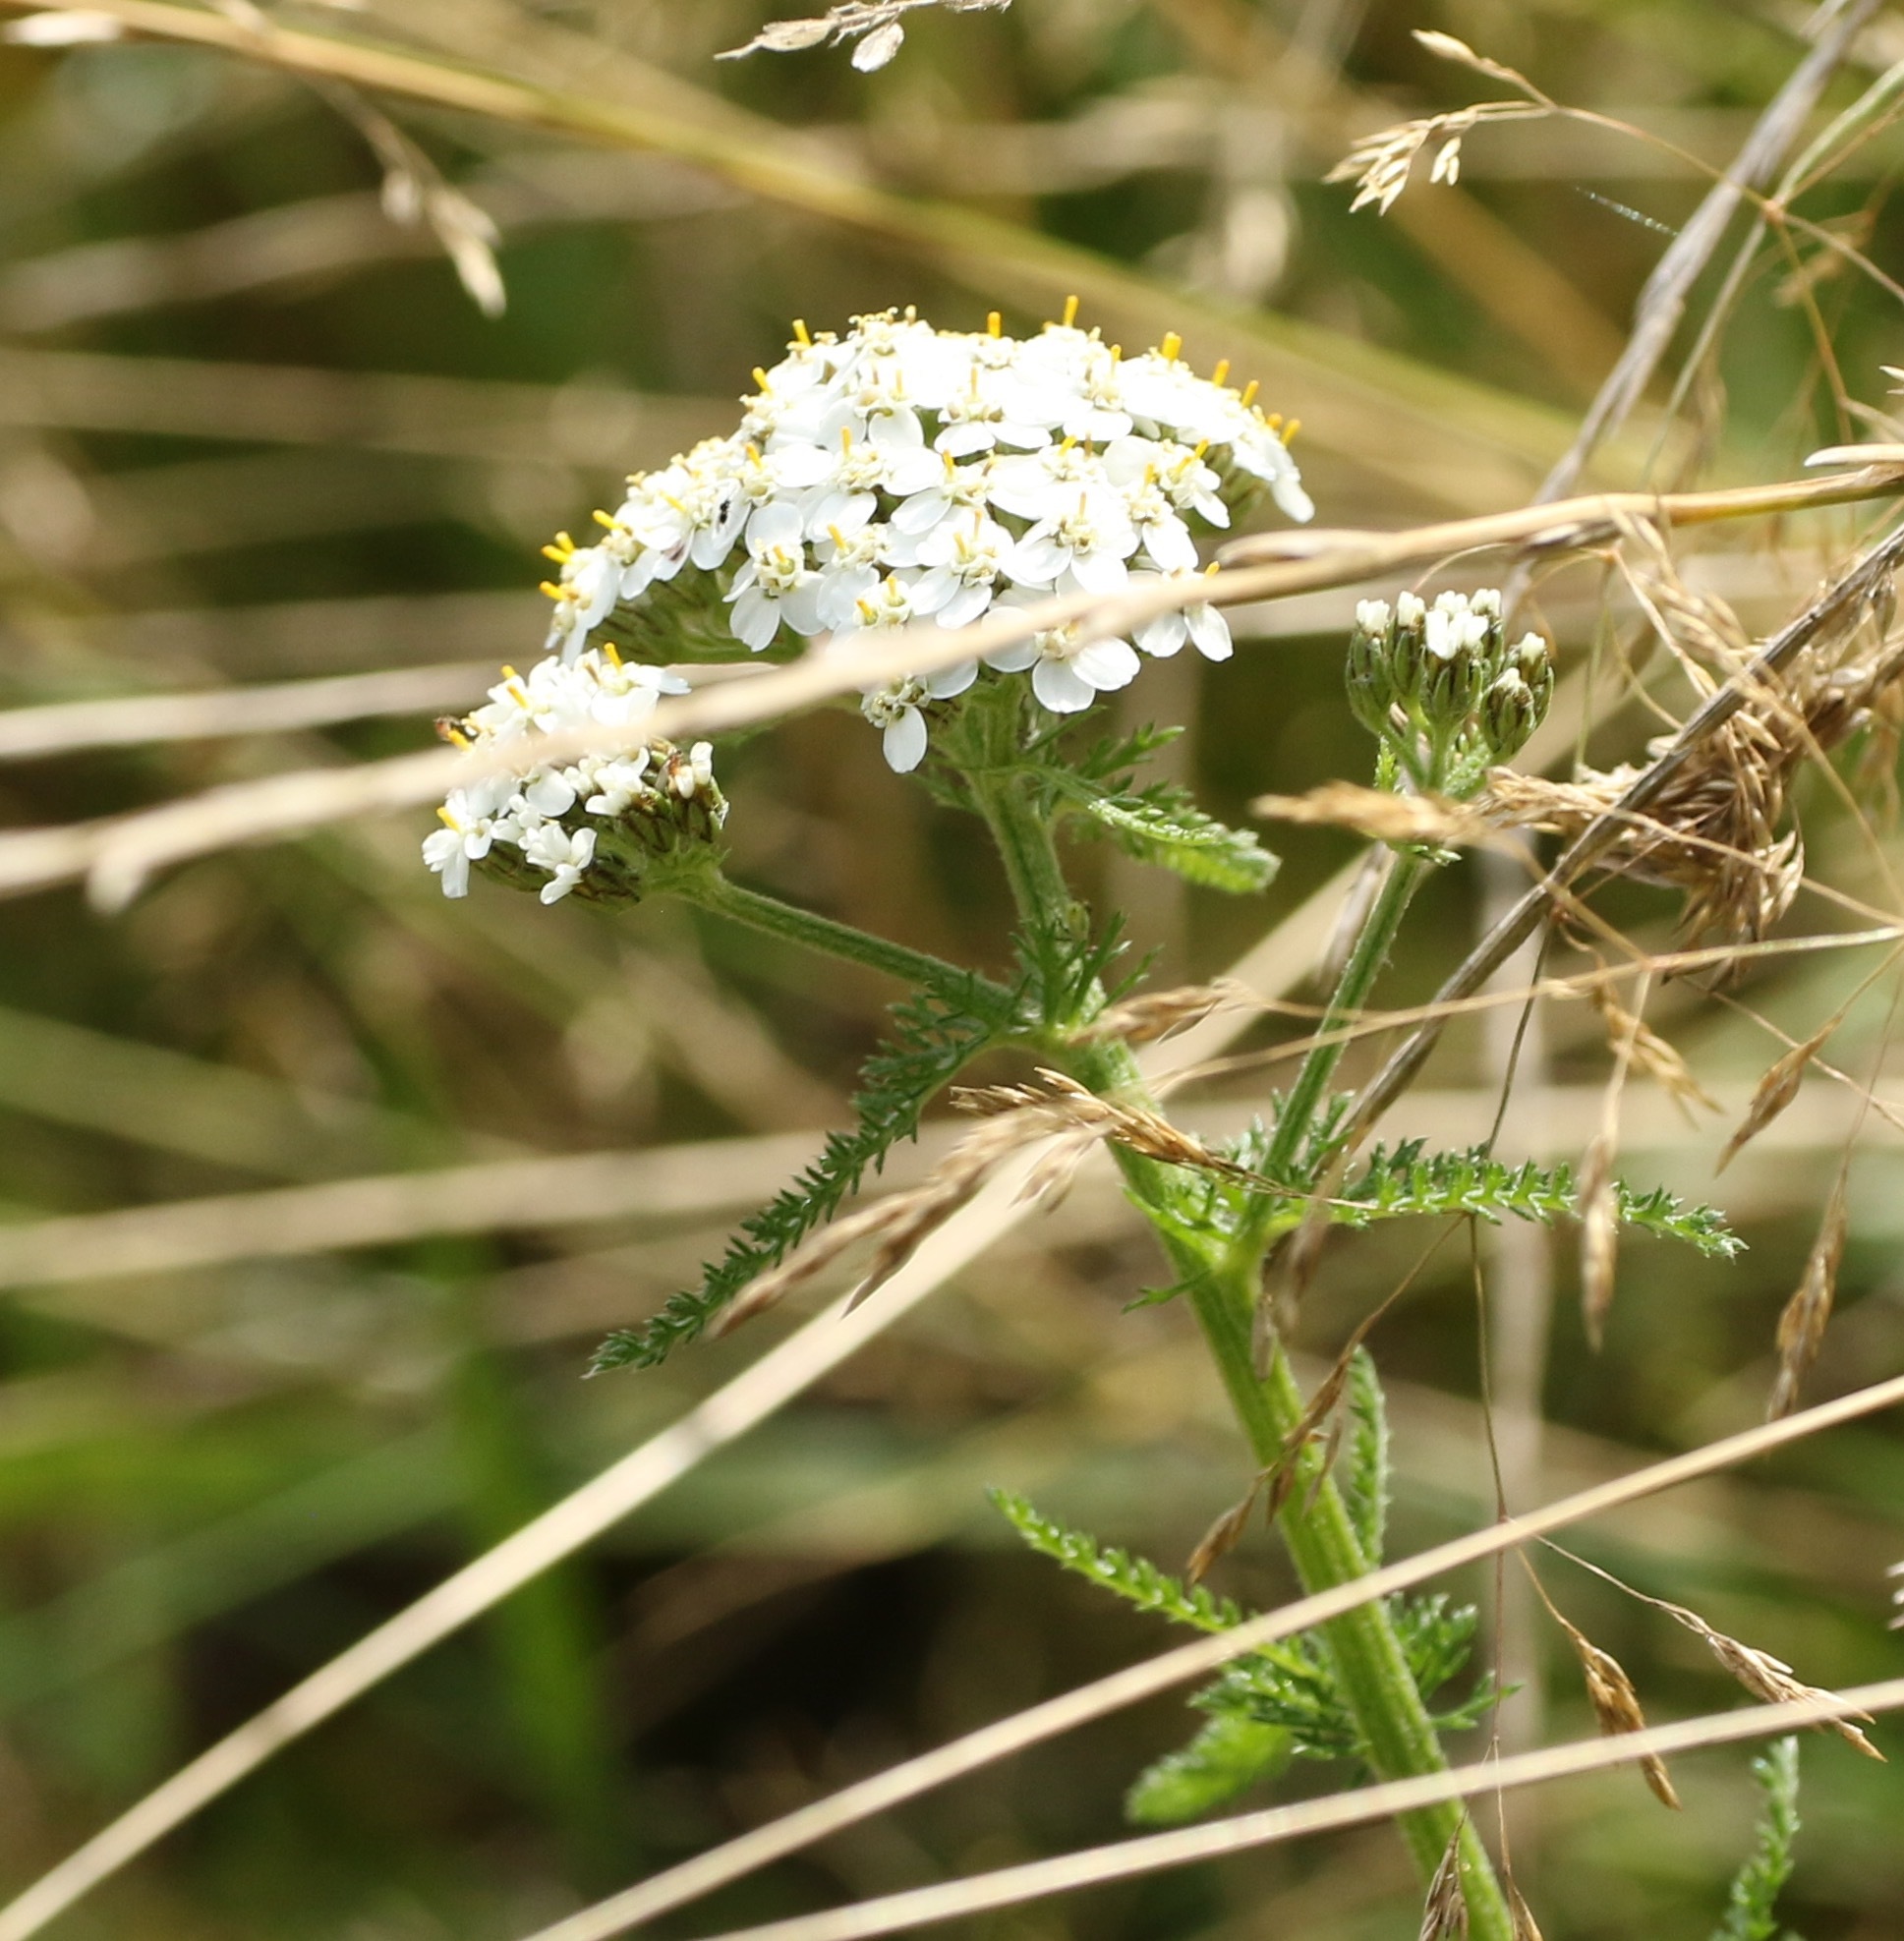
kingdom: Plantae
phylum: Tracheophyta
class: Magnoliopsida
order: Asterales
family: Asteraceae
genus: Achillea
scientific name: Achillea millefolium
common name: Yarrow
